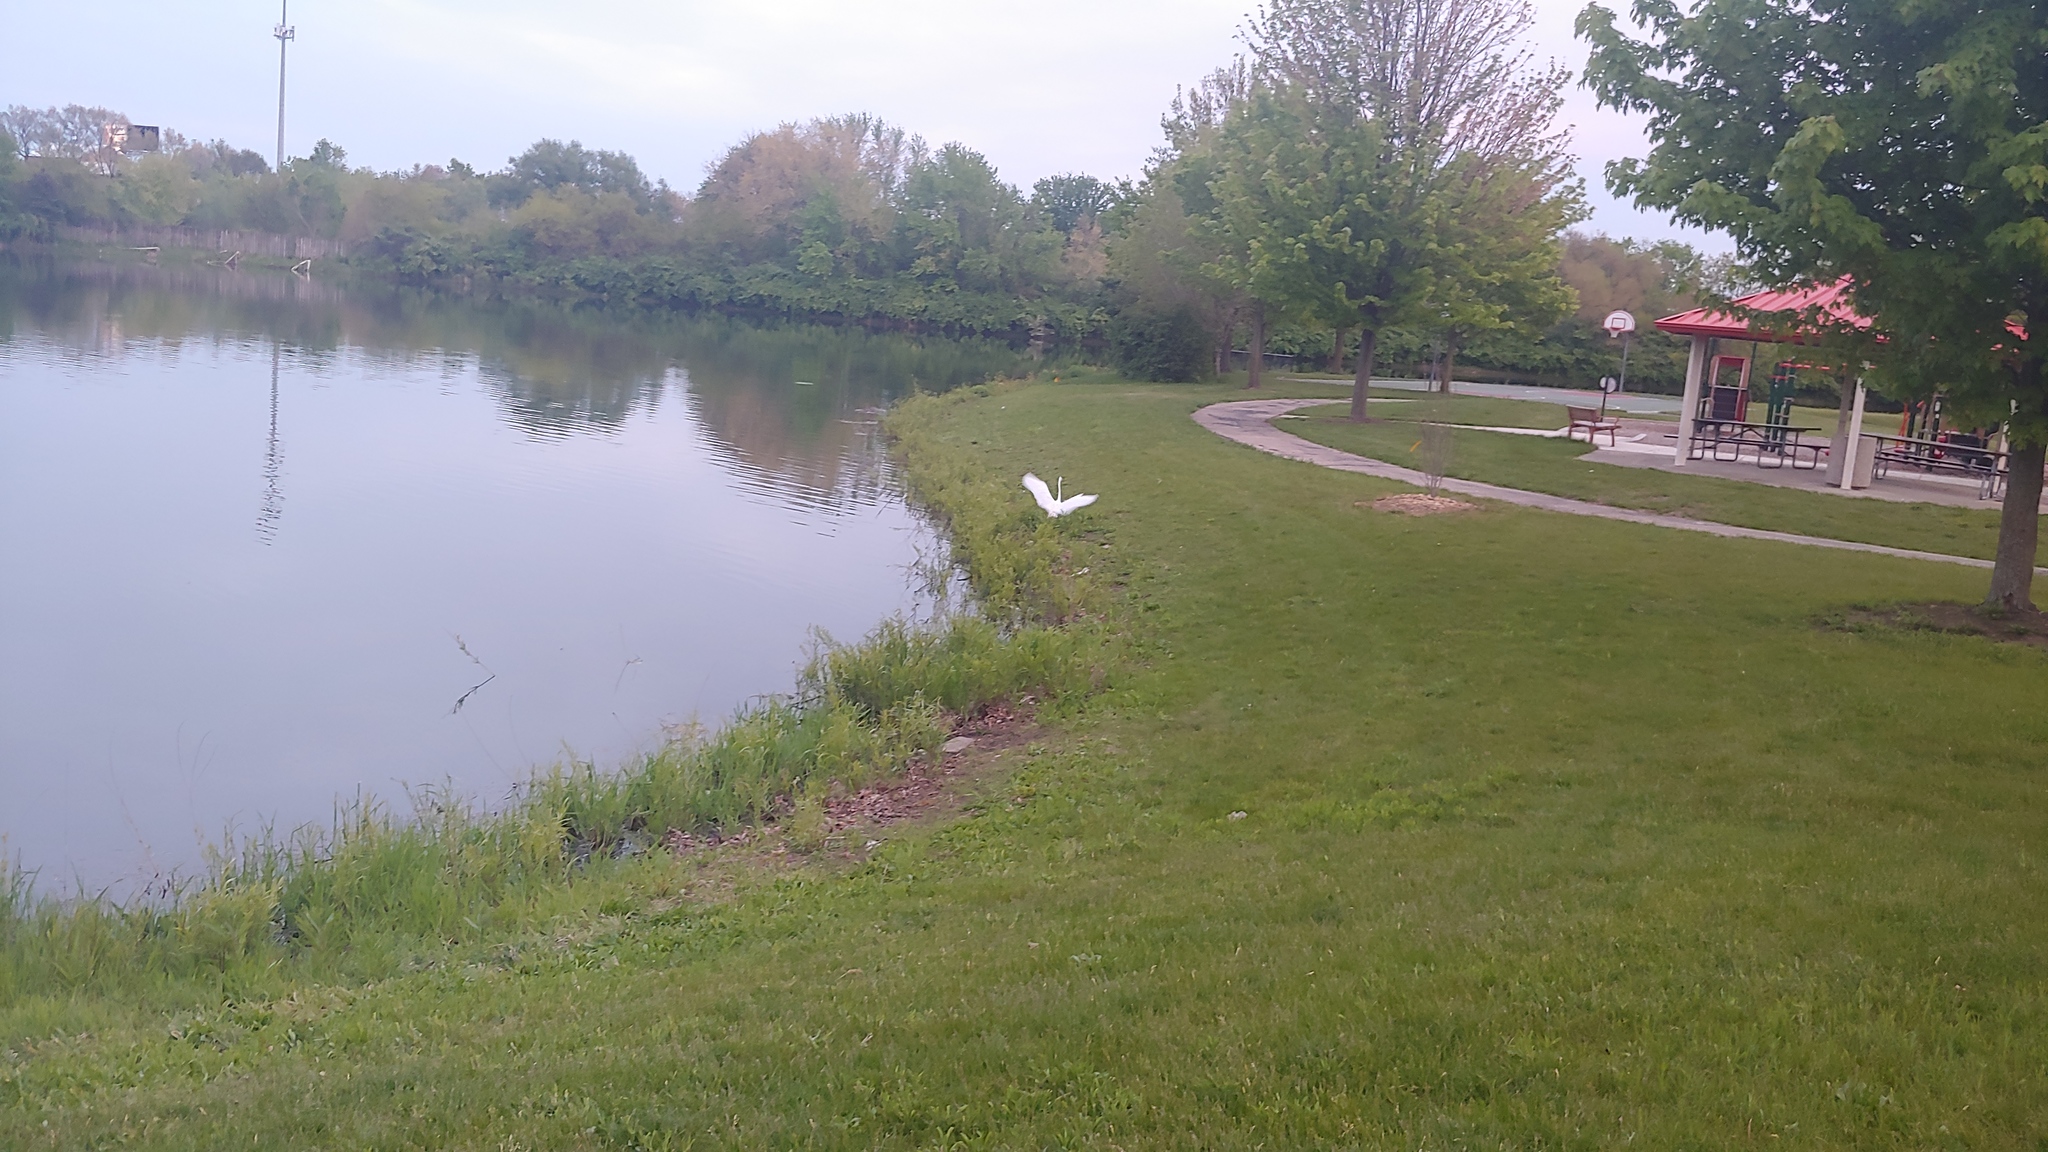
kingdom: Animalia
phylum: Chordata
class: Aves
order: Pelecaniformes
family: Ardeidae
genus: Ardea
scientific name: Ardea alba
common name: Great egret
